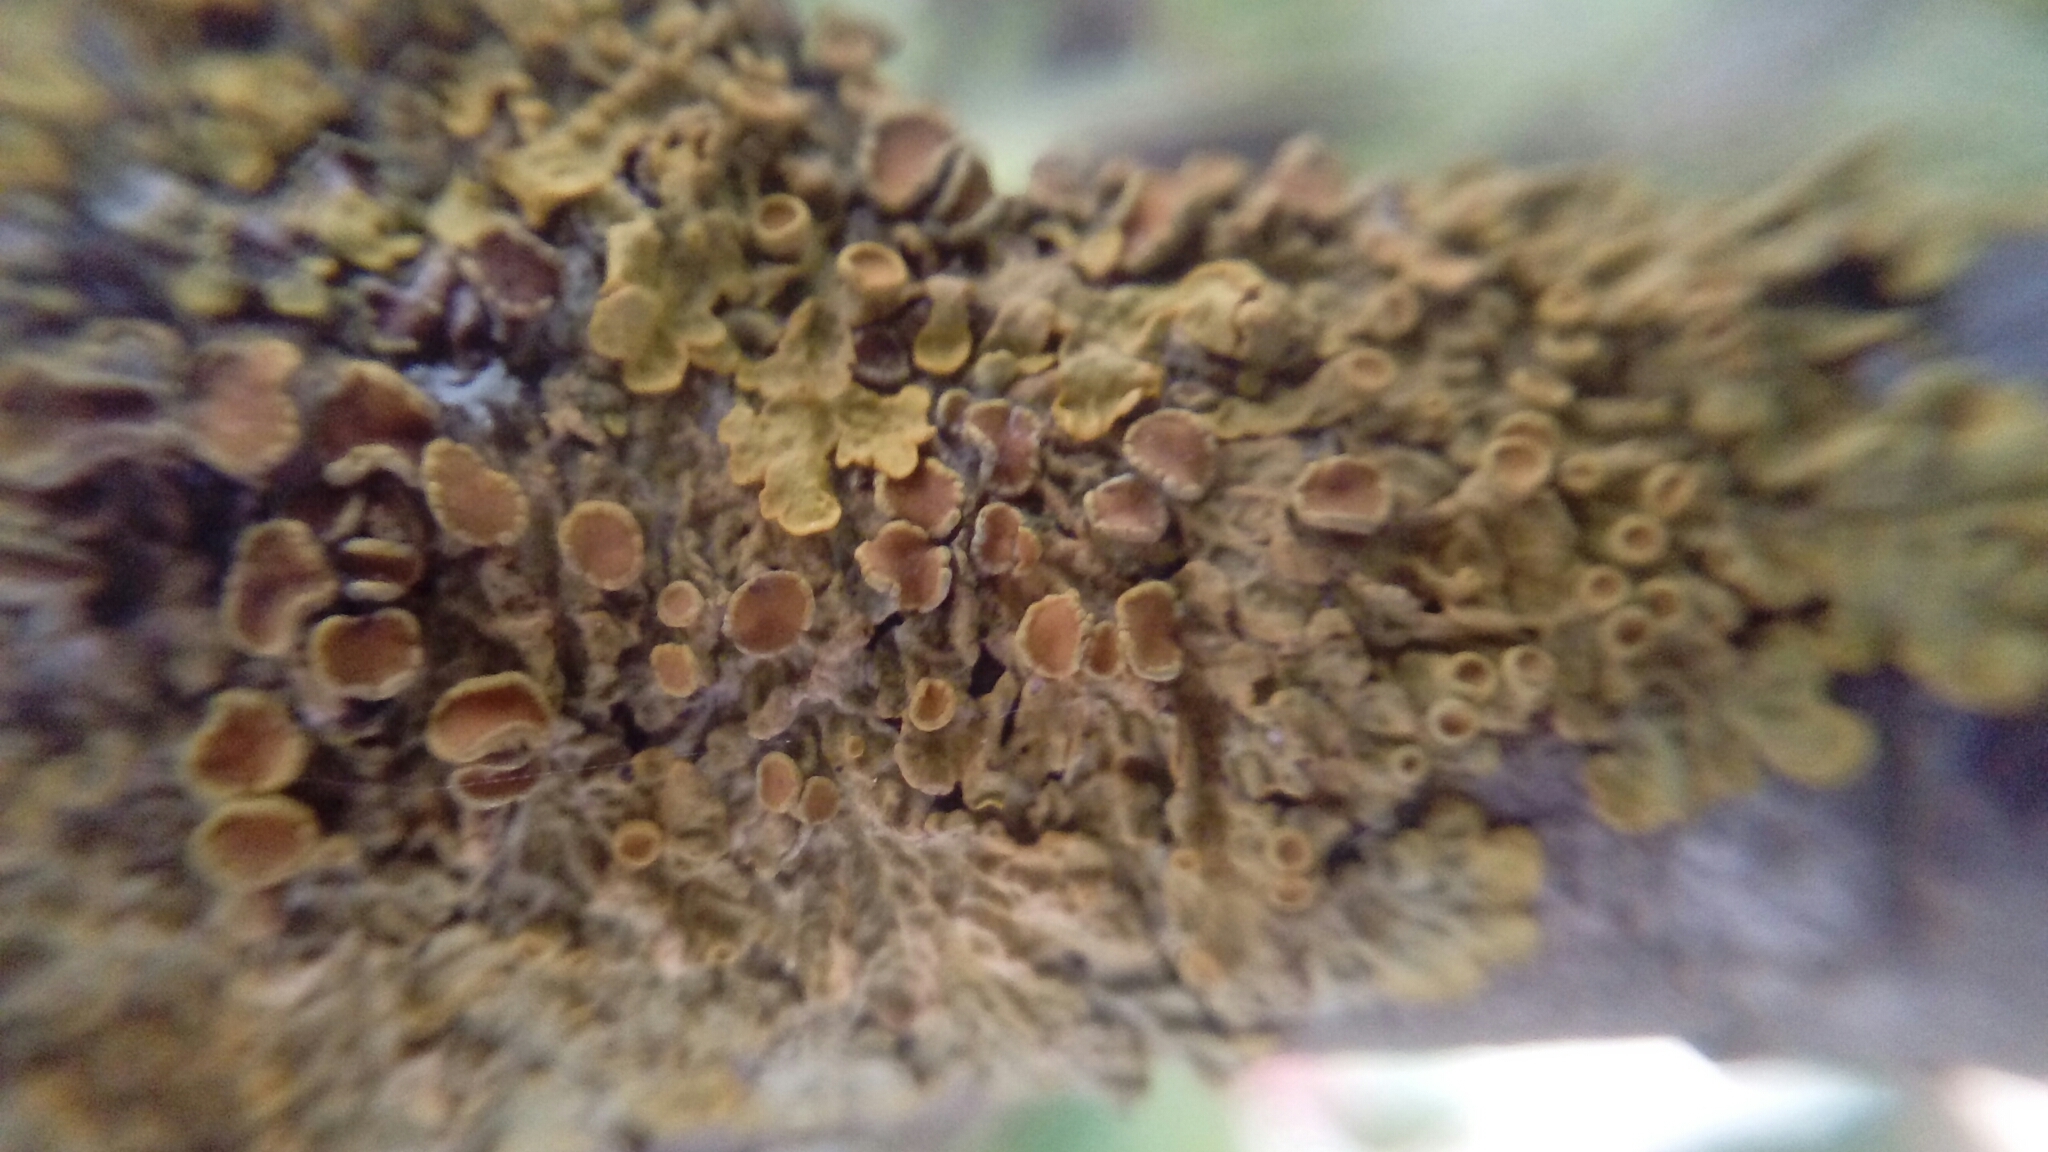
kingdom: Fungi
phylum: Ascomycota
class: Lecanoromycetes
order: Teloschistales
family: Teloschistaceae
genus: Xanthoria
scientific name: Xanthoria parietina
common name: Common orange lichen
